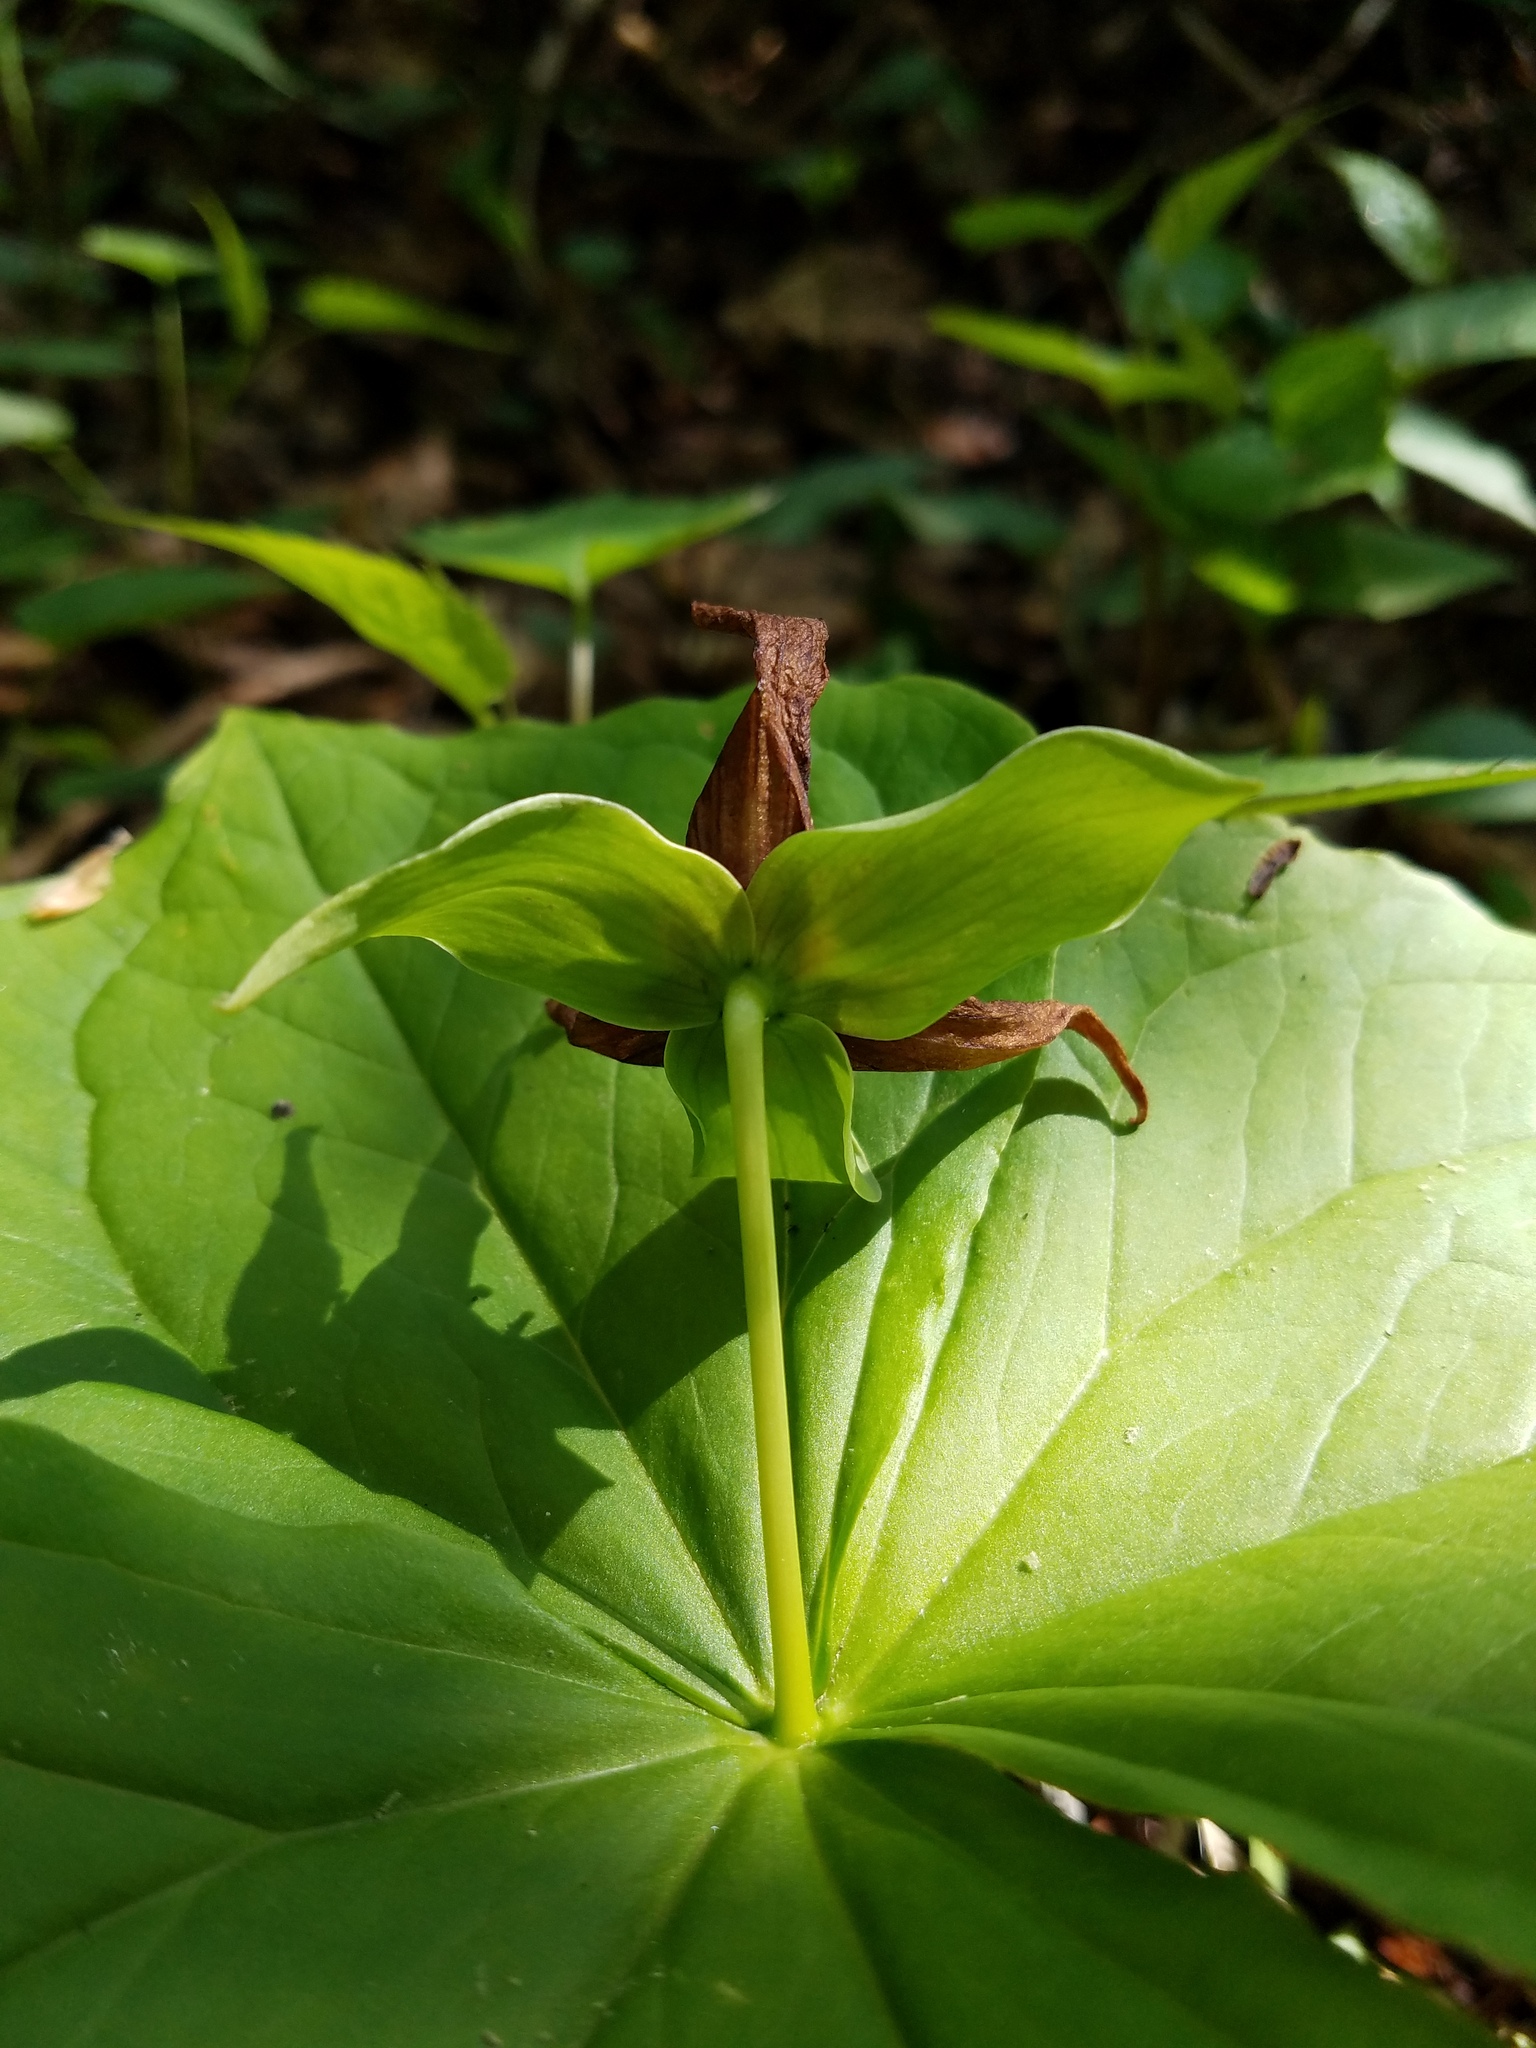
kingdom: Plantae
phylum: Tracheophyta
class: Liliopsida
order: Liliales
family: Melanthiaceae
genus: Trillium
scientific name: Trillium erectum
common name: Purple trillium
